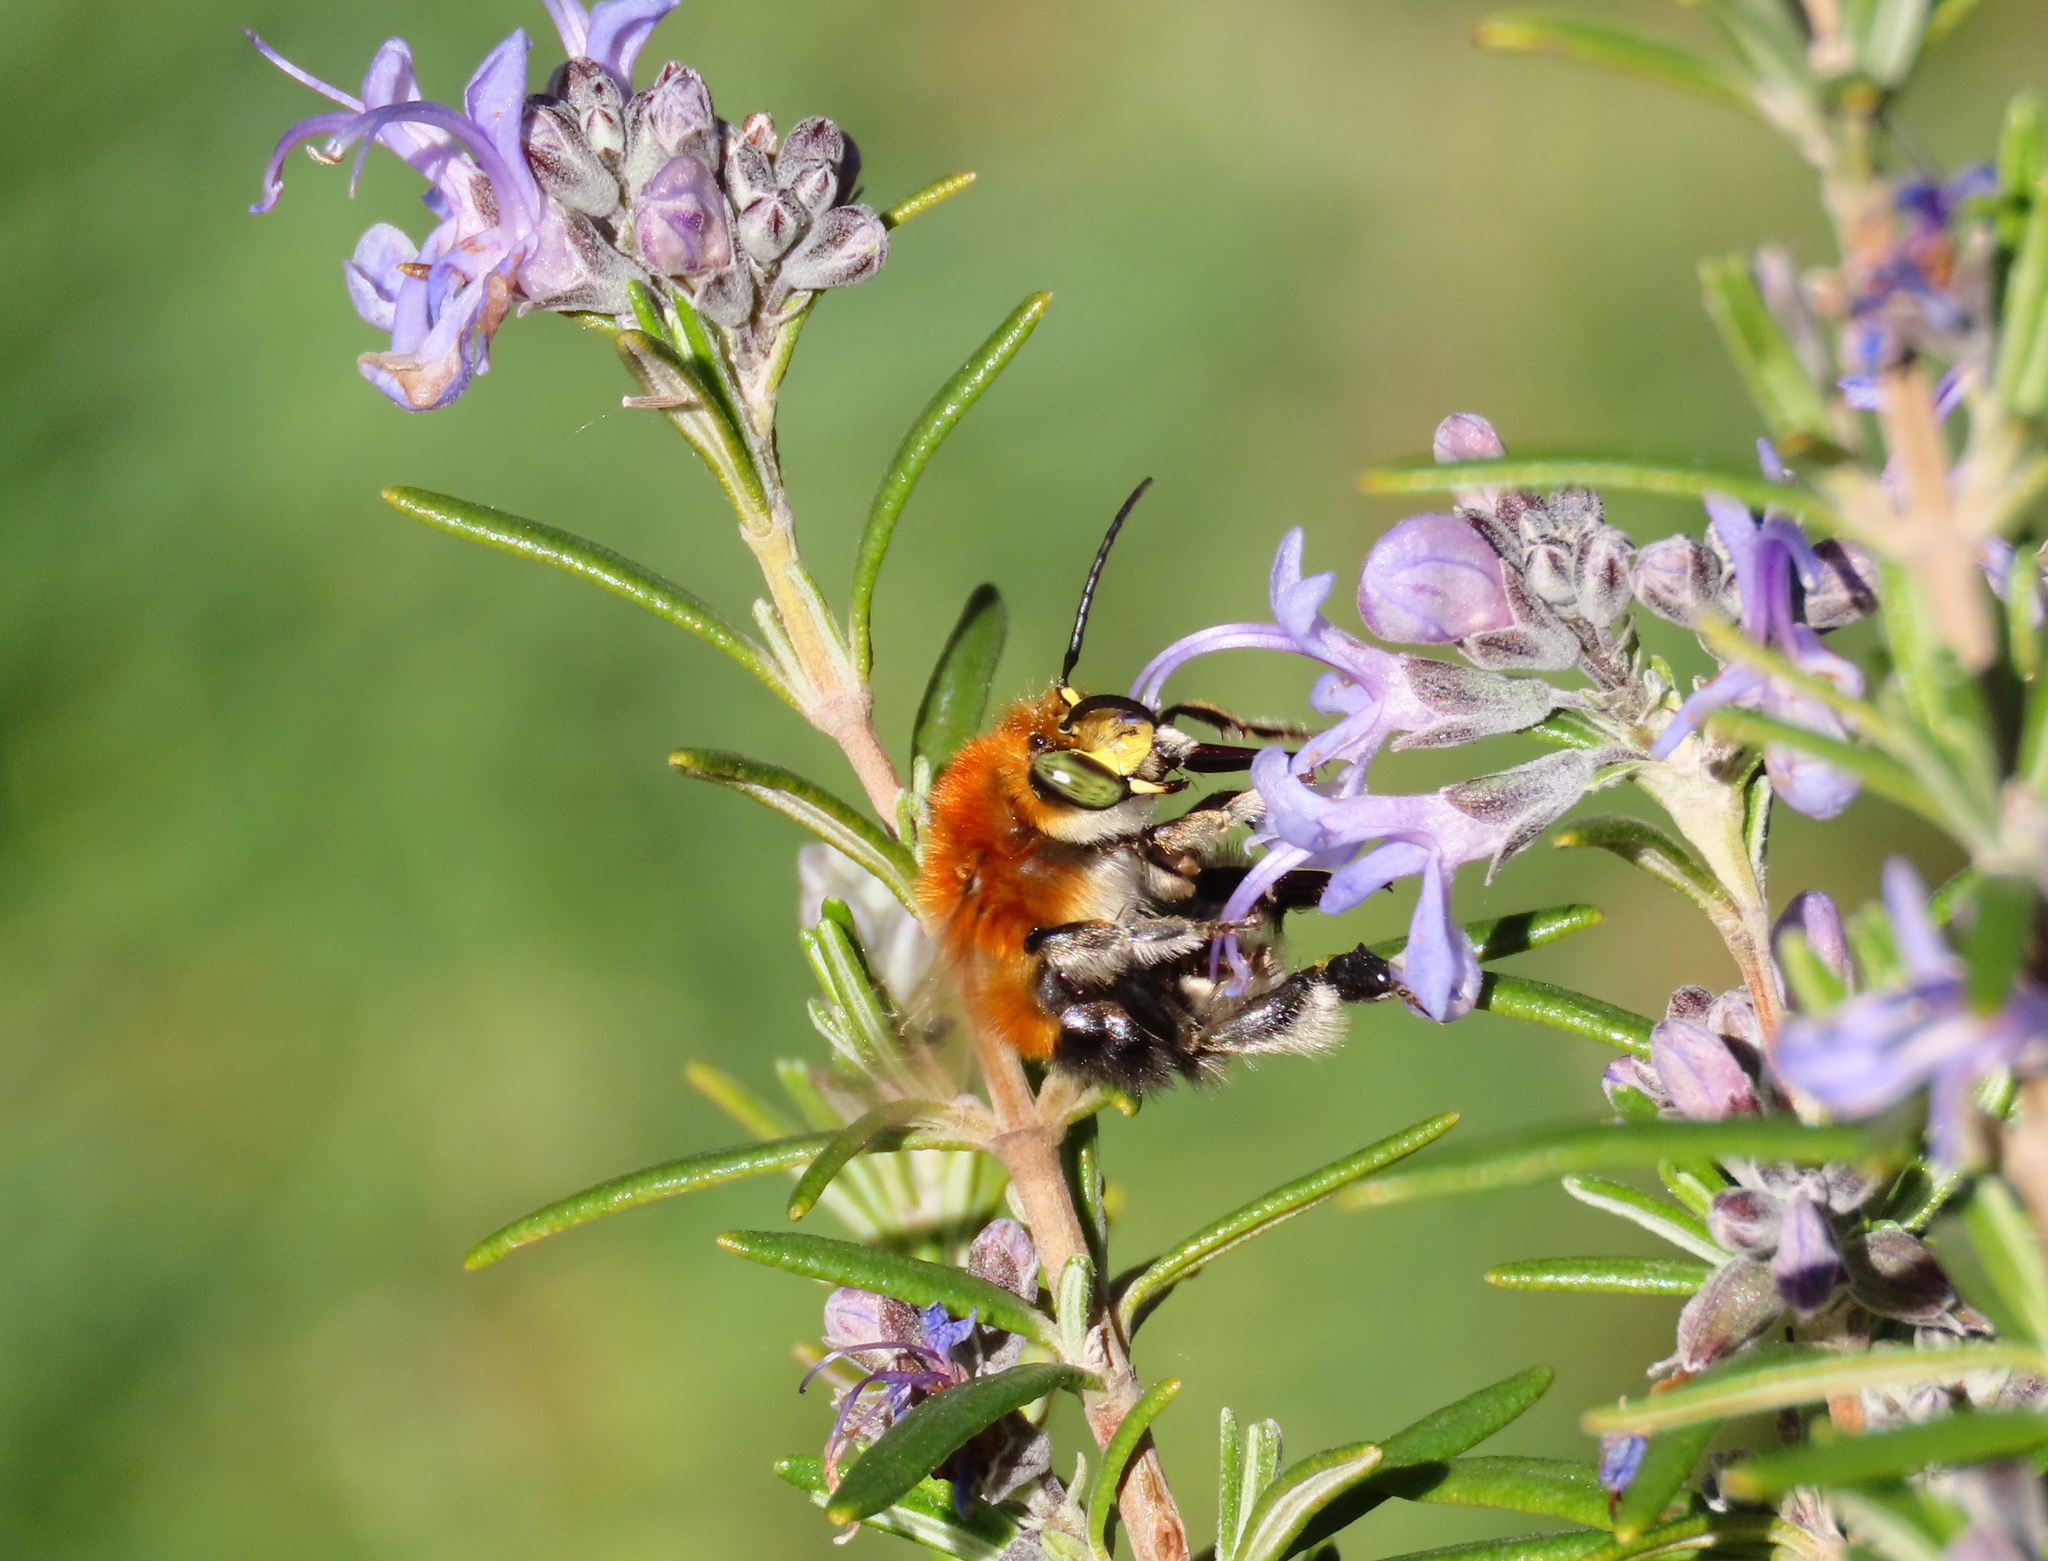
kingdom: Animalia
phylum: Arthropoda
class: Insecta
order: Hymenoptera
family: Apidae
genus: Habropoda
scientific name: Habropoda tarsata
